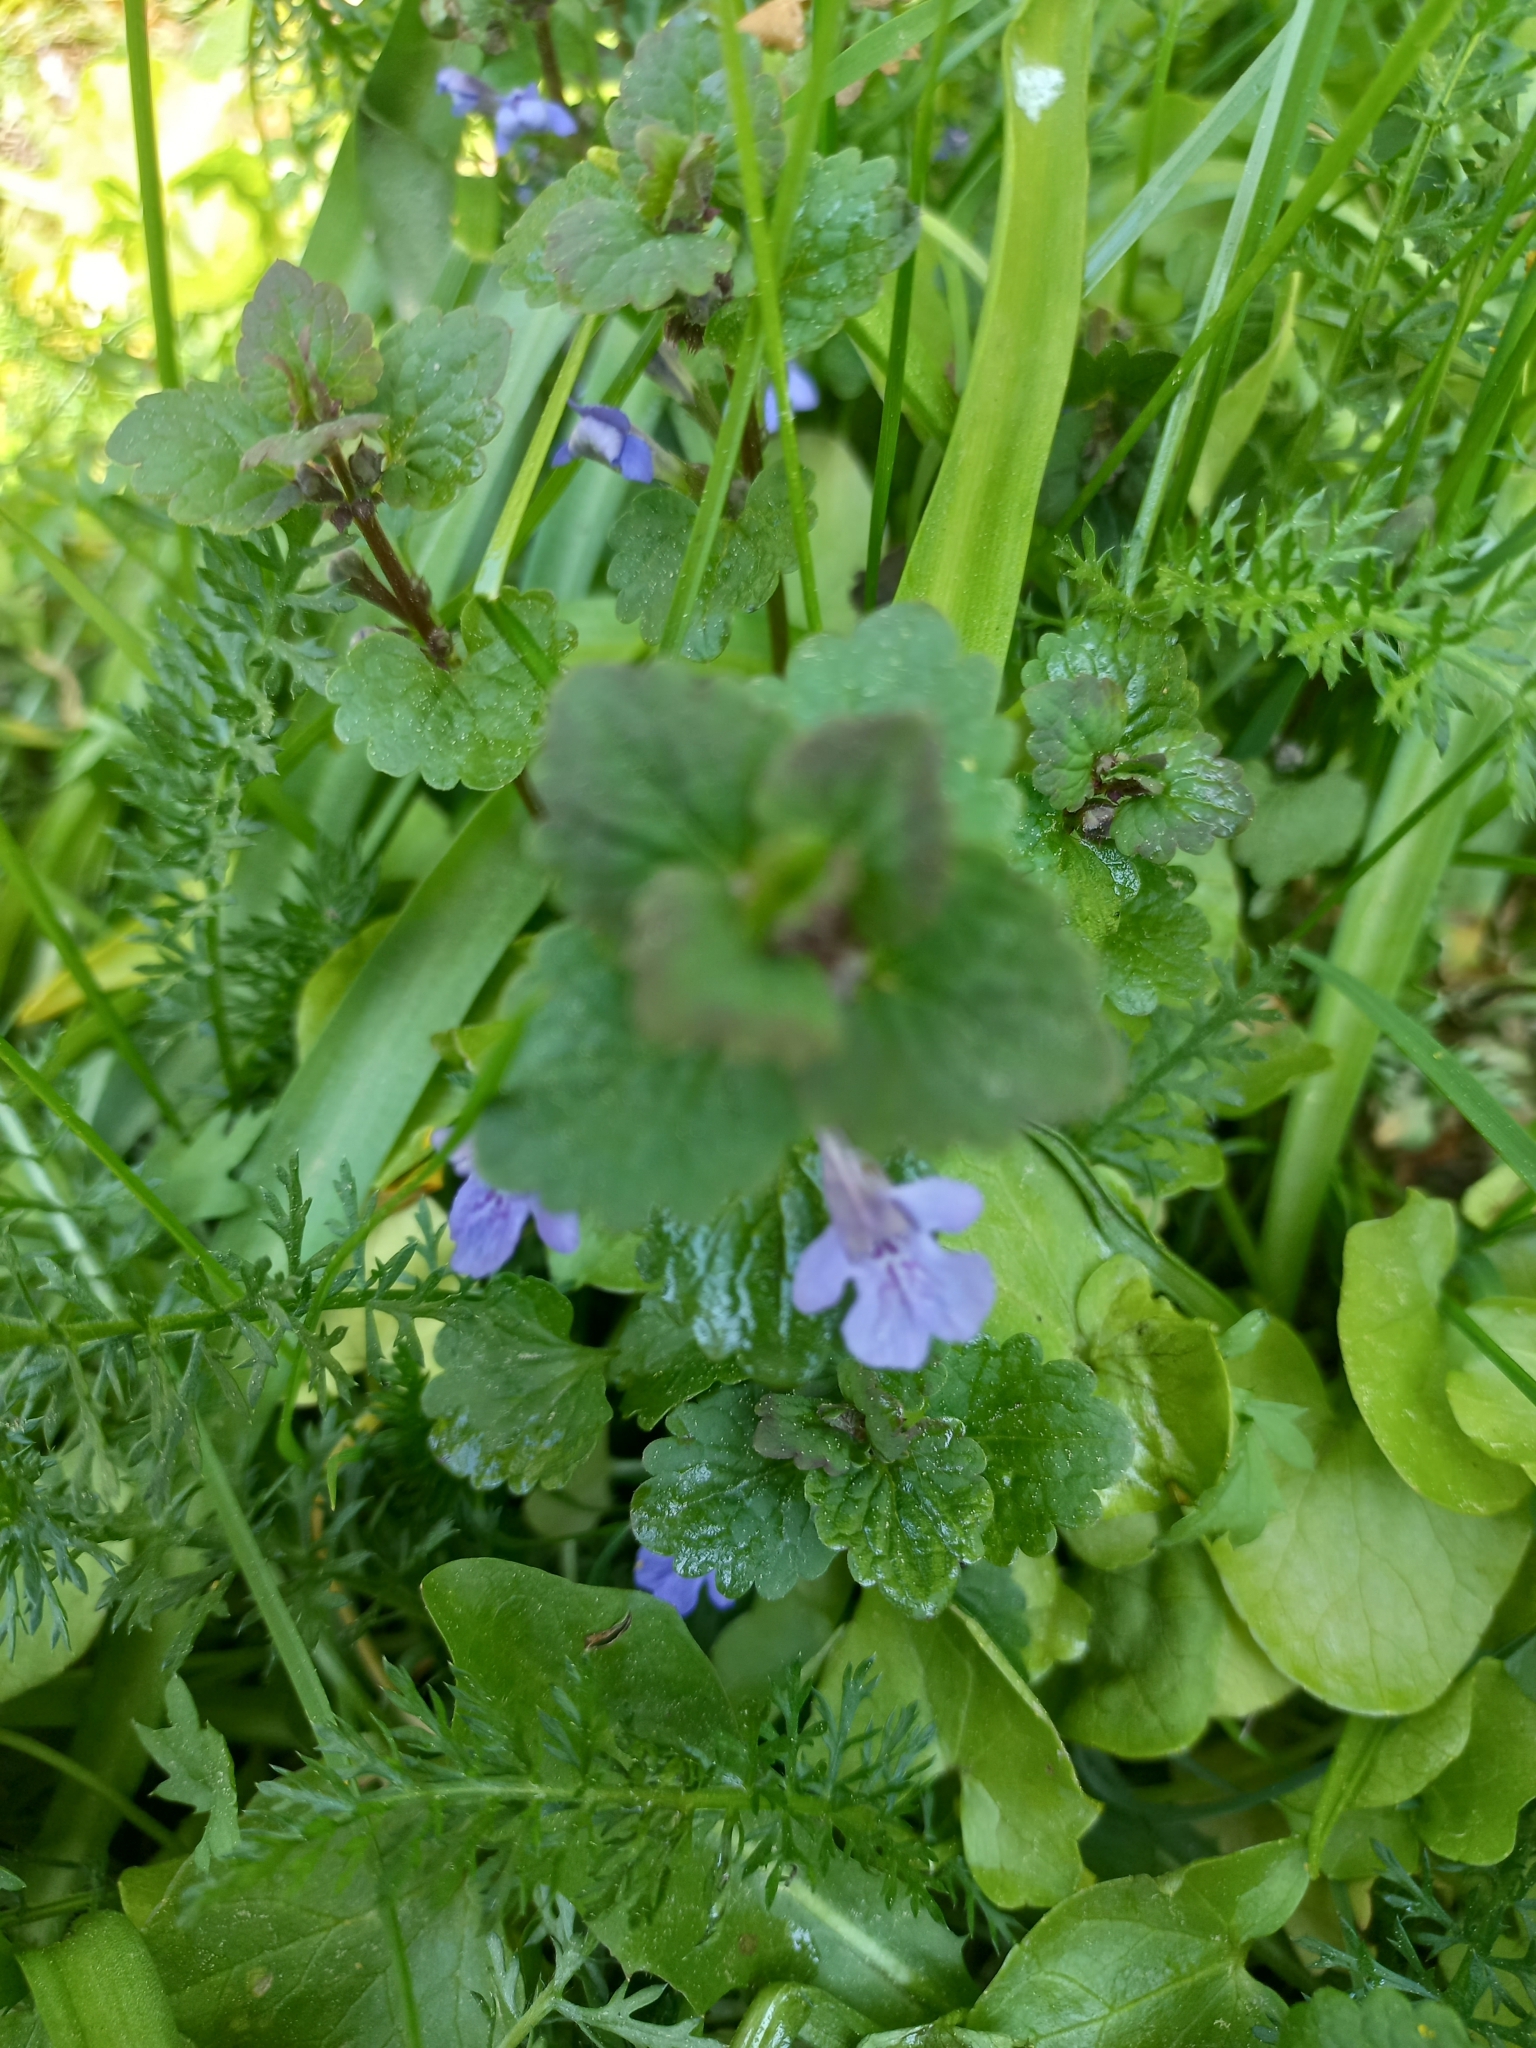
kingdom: Plantae
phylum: Tracheophyta
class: Magnoliopsida
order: Lamiales
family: Lamiaceae
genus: Glechoma
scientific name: Glechoma hederacea
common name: Ground ivy
